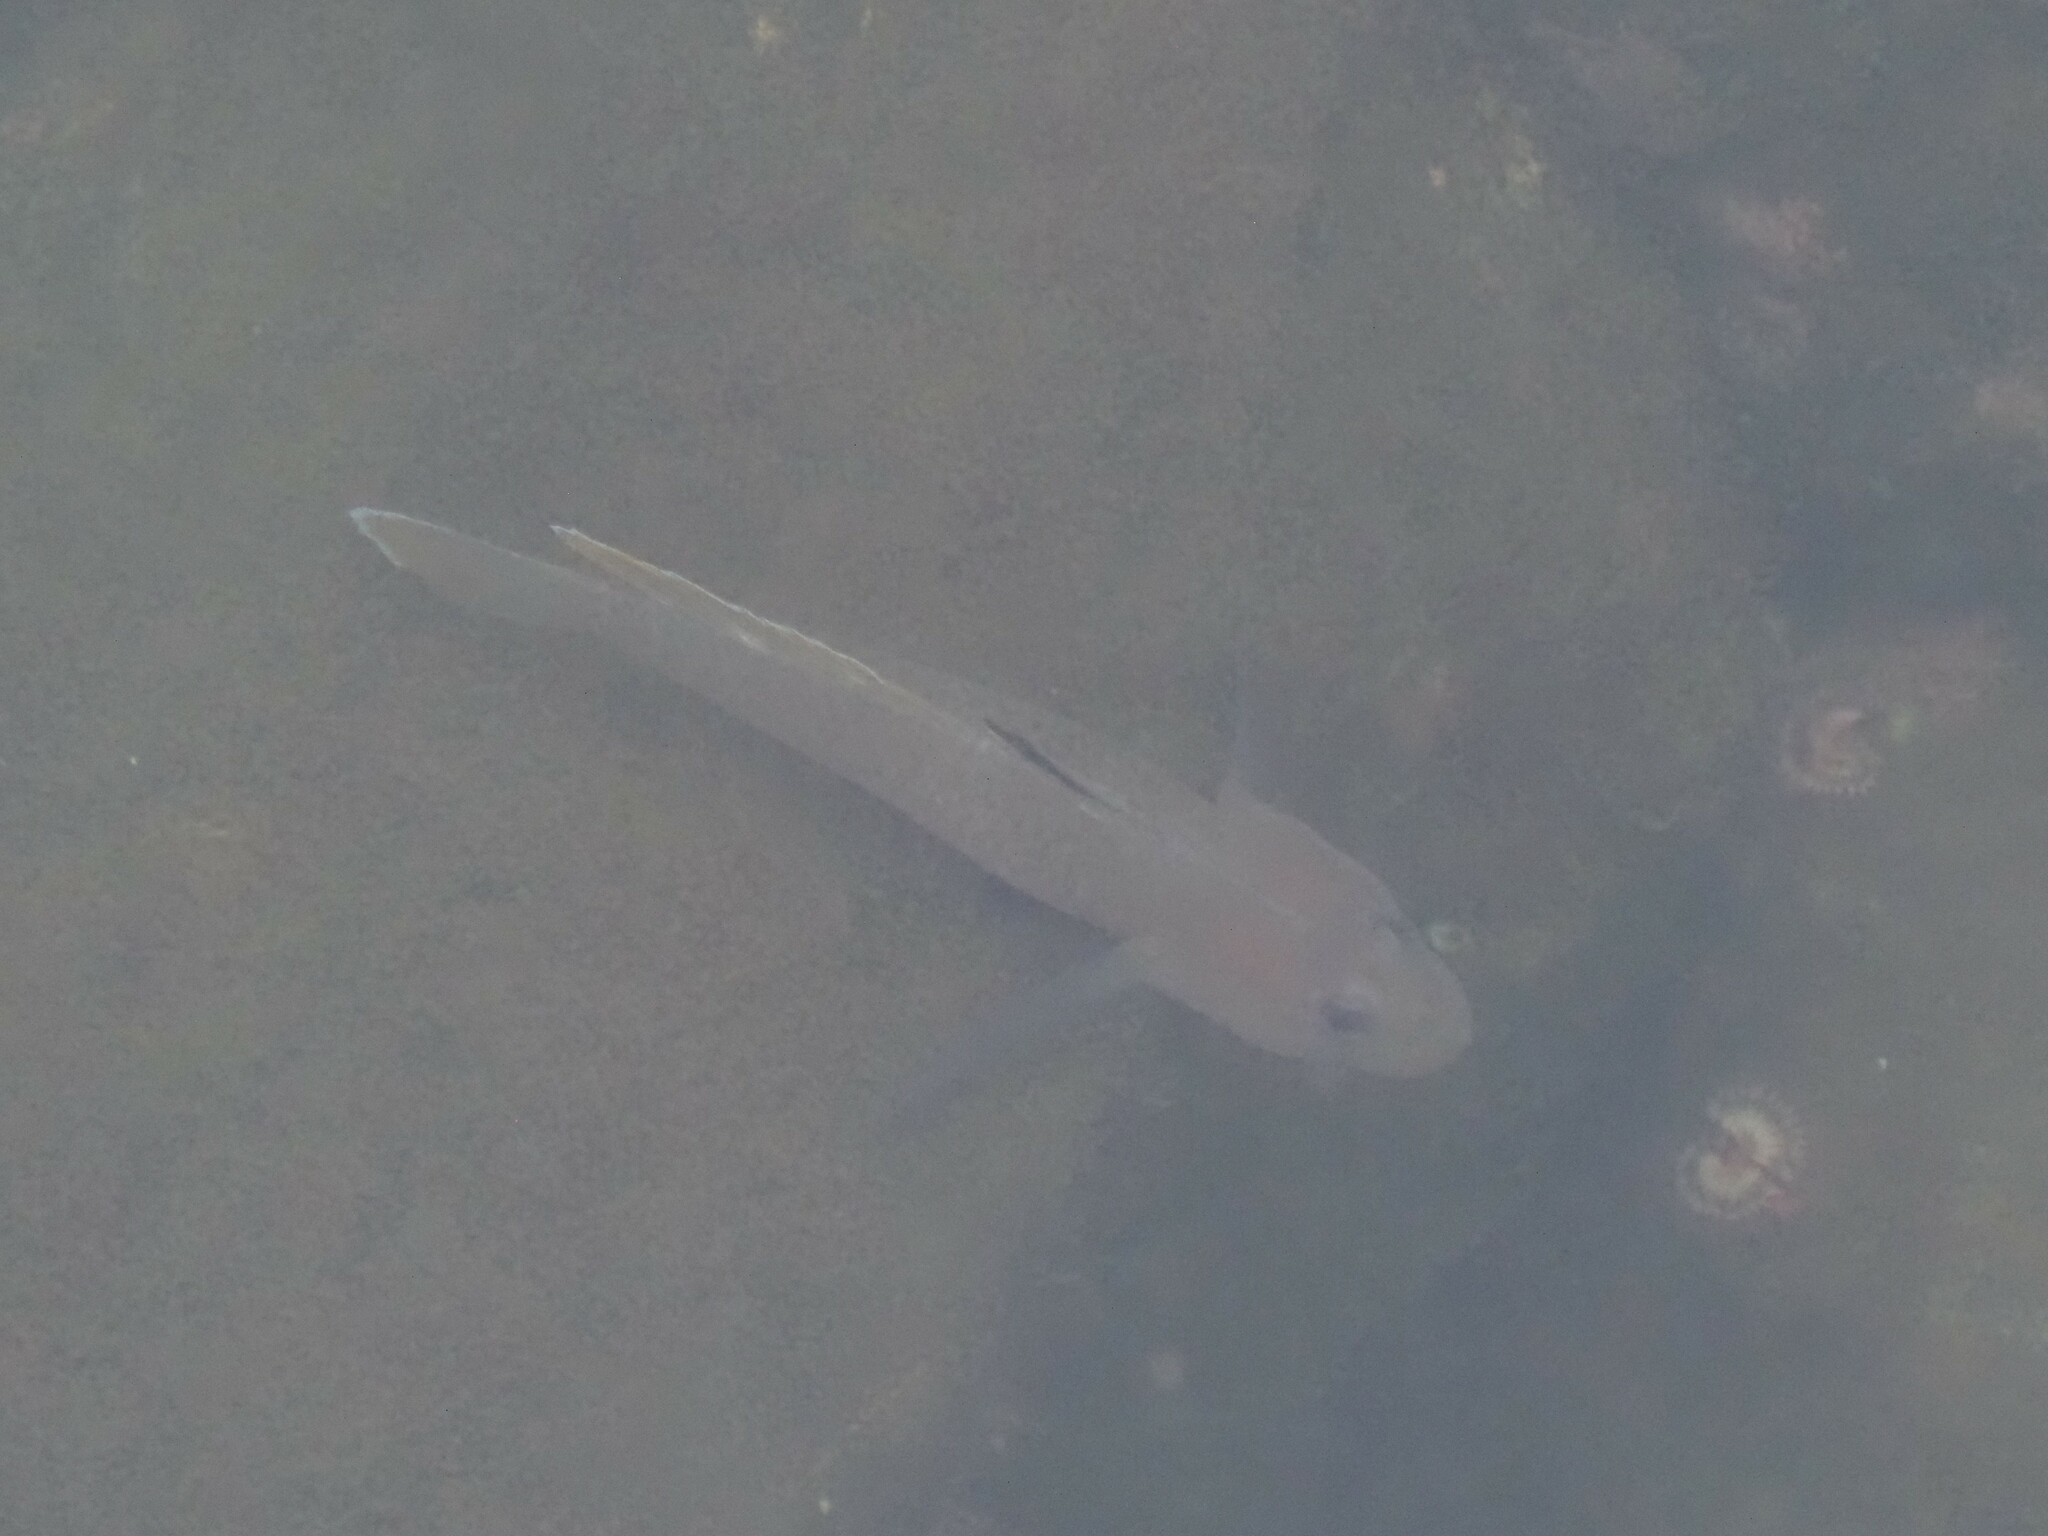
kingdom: Animalia
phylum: Chordata
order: Perciformes
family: Gobiidae
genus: Rhinogobiops
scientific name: Rhinogobiops nicholsii
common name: Blackeye goby
